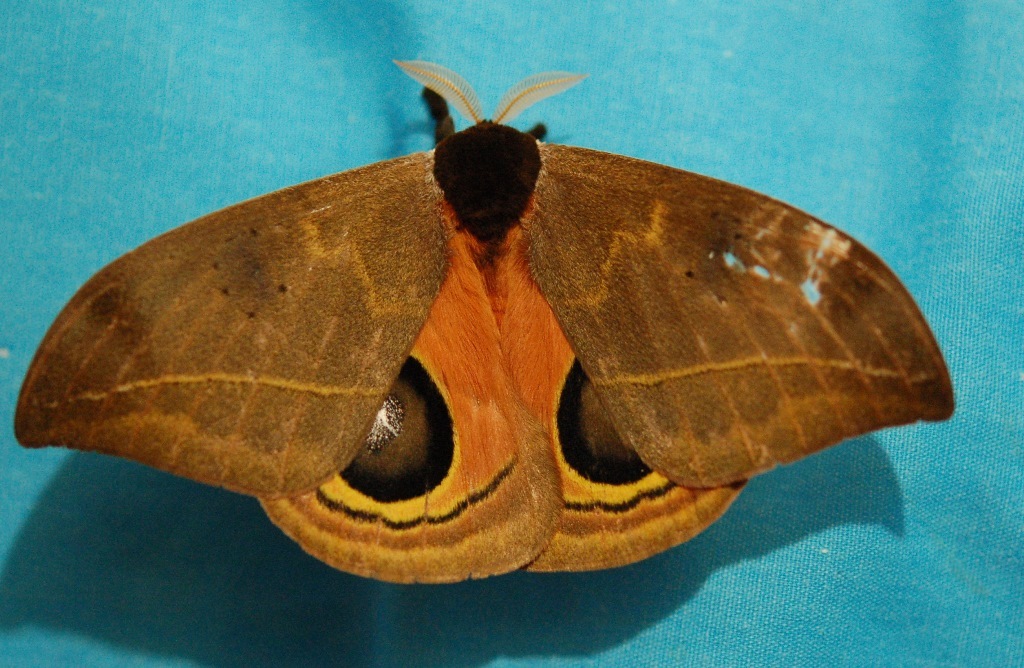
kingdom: Animalia
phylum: Arthropoda
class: Insecta
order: Lepidoptera
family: Saturniidae
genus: Automeris
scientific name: Automeris belti
